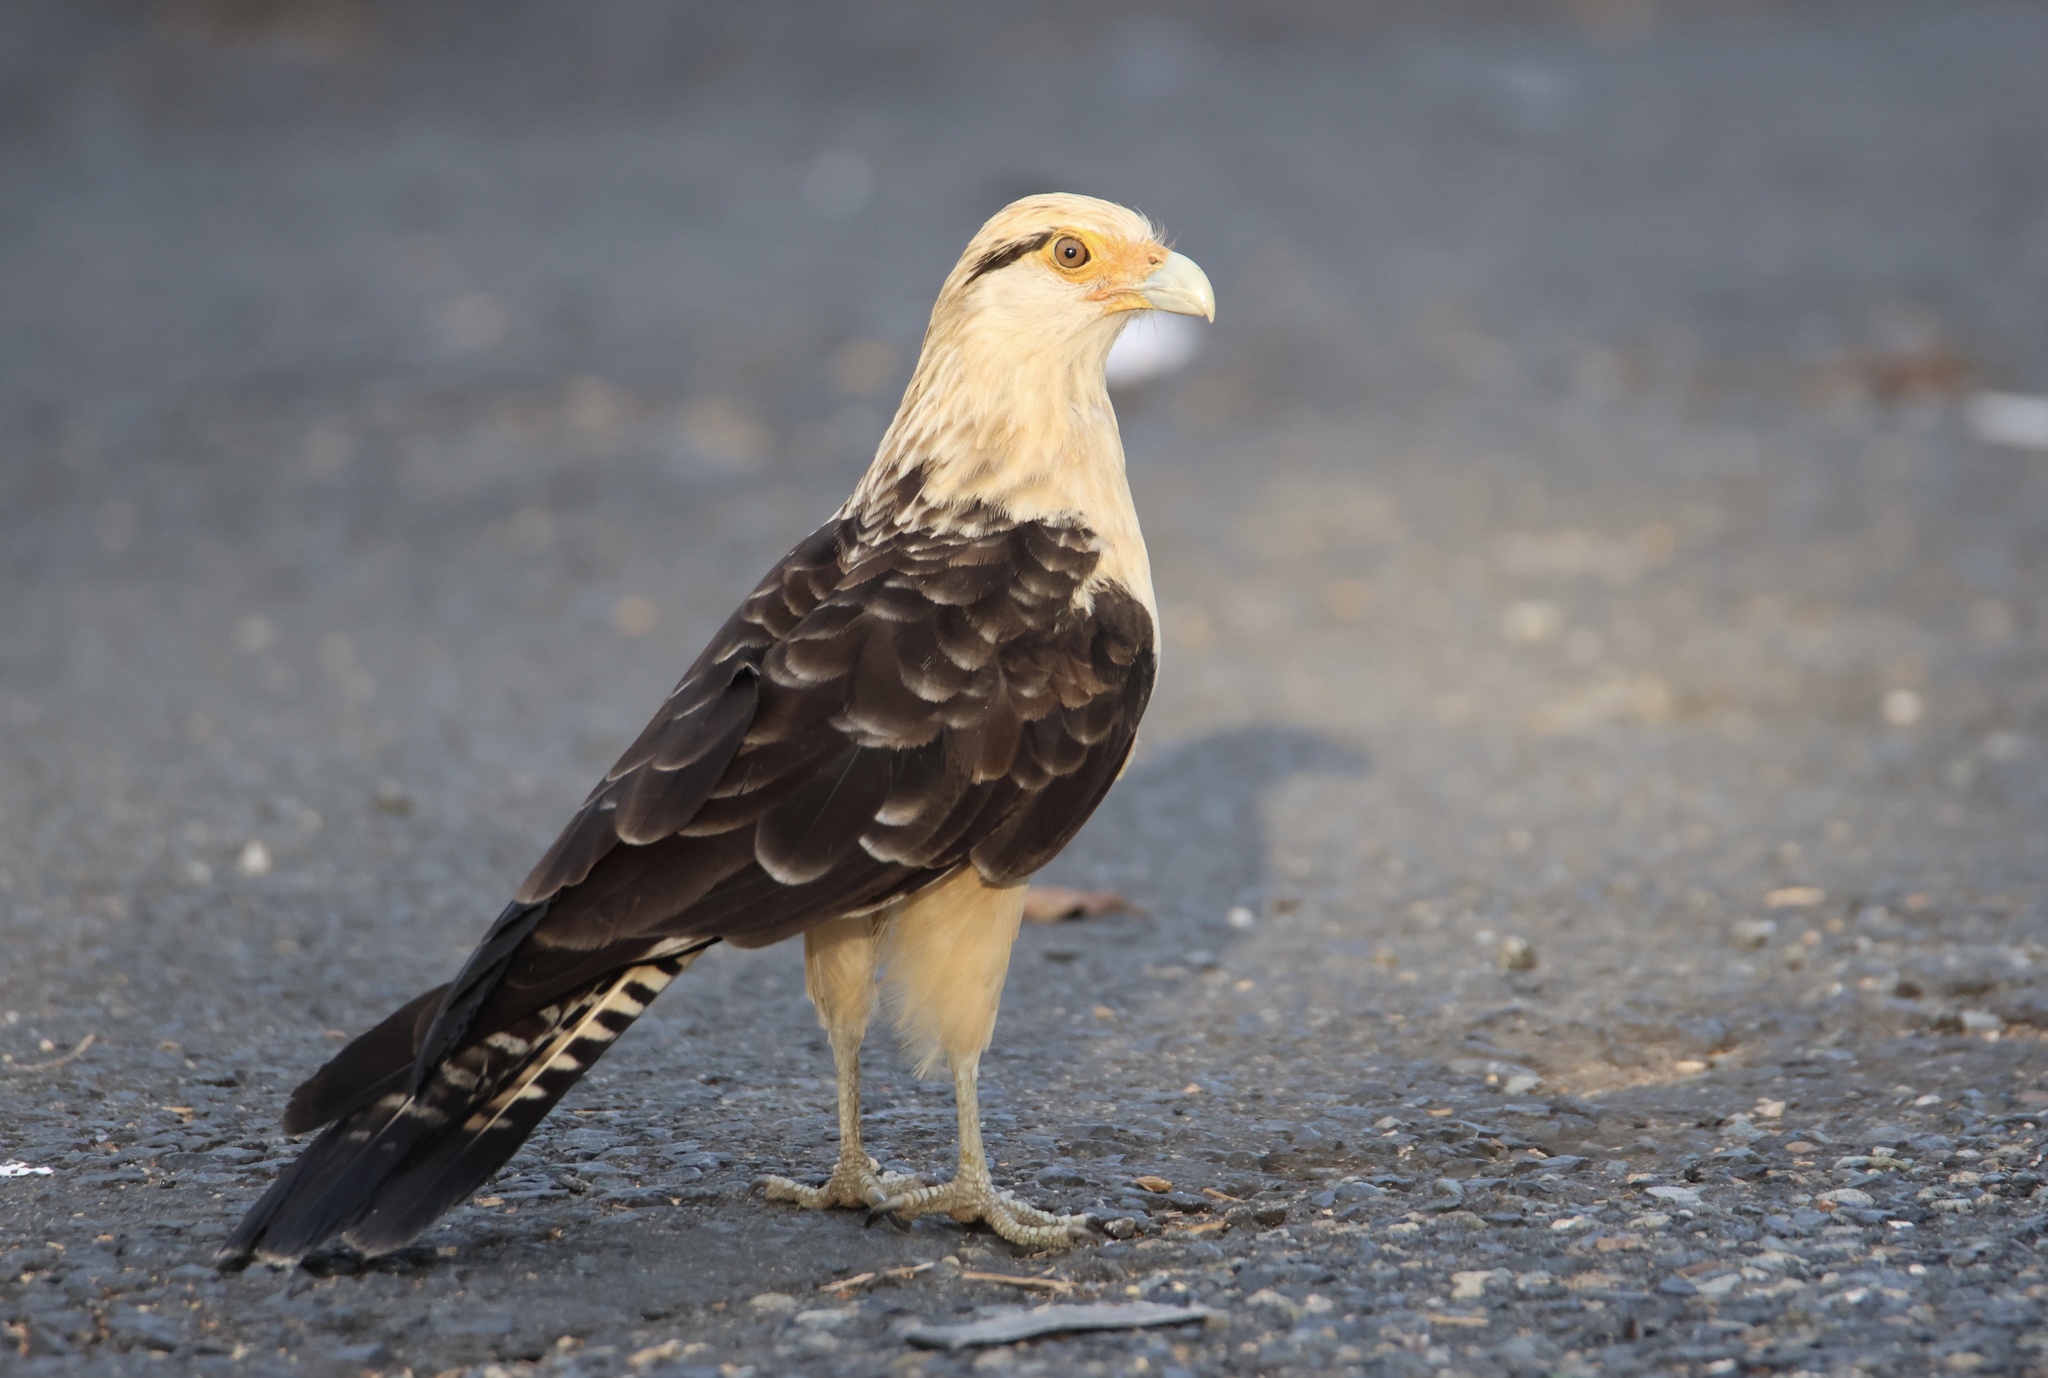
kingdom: Animalia
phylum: Chordata
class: Aves
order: Falconiformes
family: Falconidae
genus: Daptrius
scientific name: Daptrius
